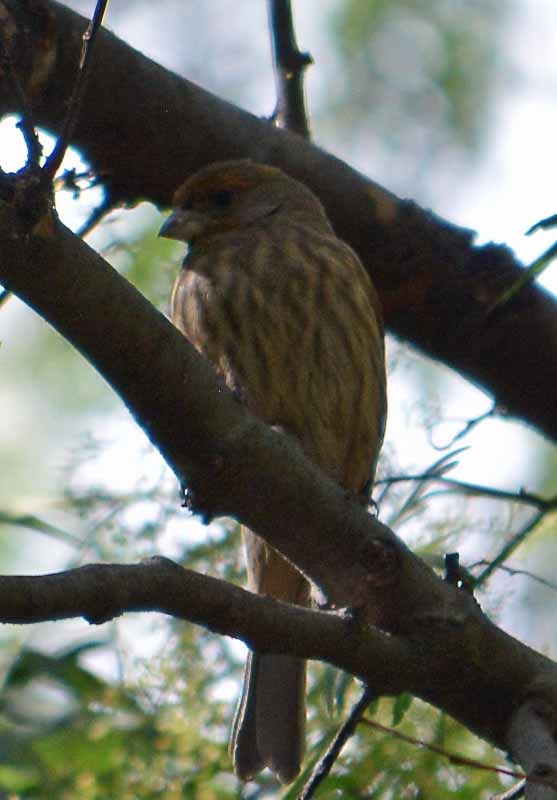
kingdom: Animalia
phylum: Chordata
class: Aves
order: Passeriformes
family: Fringillidae
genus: Haemorhous
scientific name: Haemorhous mexicanus
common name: House finch
